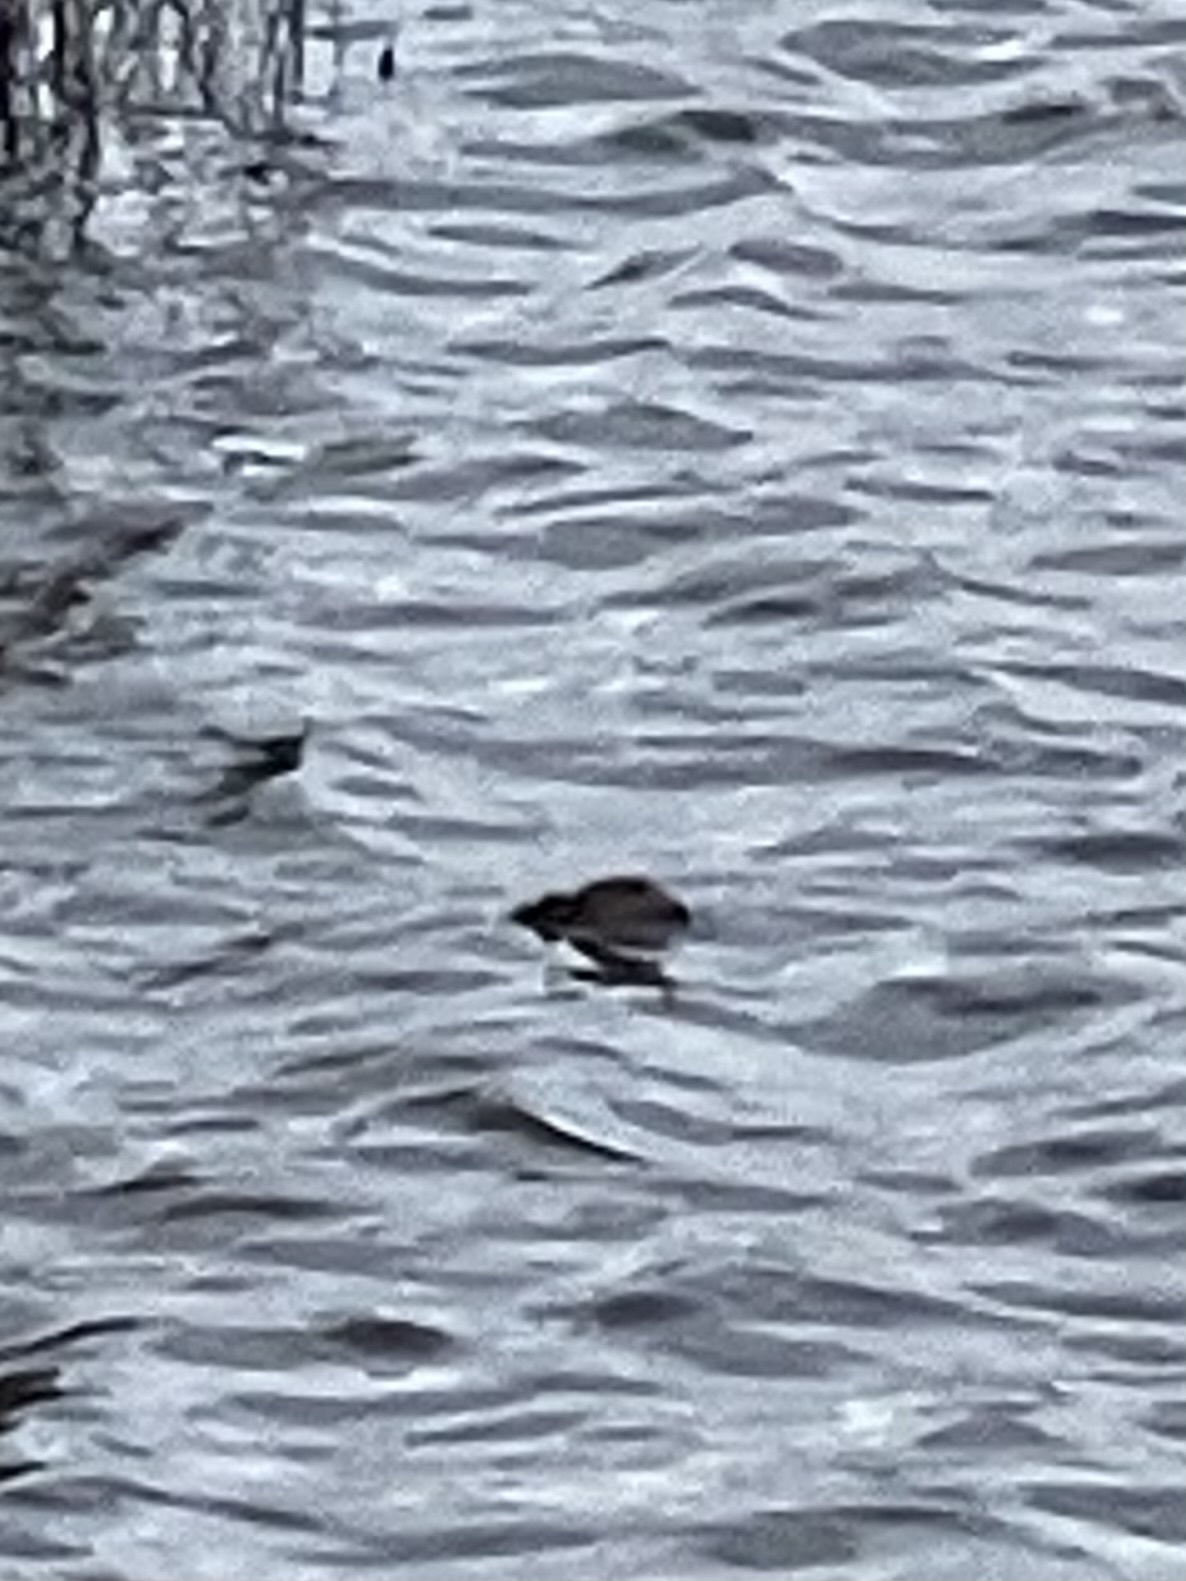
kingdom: Animalia
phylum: Chordata
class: Aves
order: Podicipediformes
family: Podicipedidae
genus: Tachybaptus
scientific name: Tachybaptus ruficollis
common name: Little grebe
